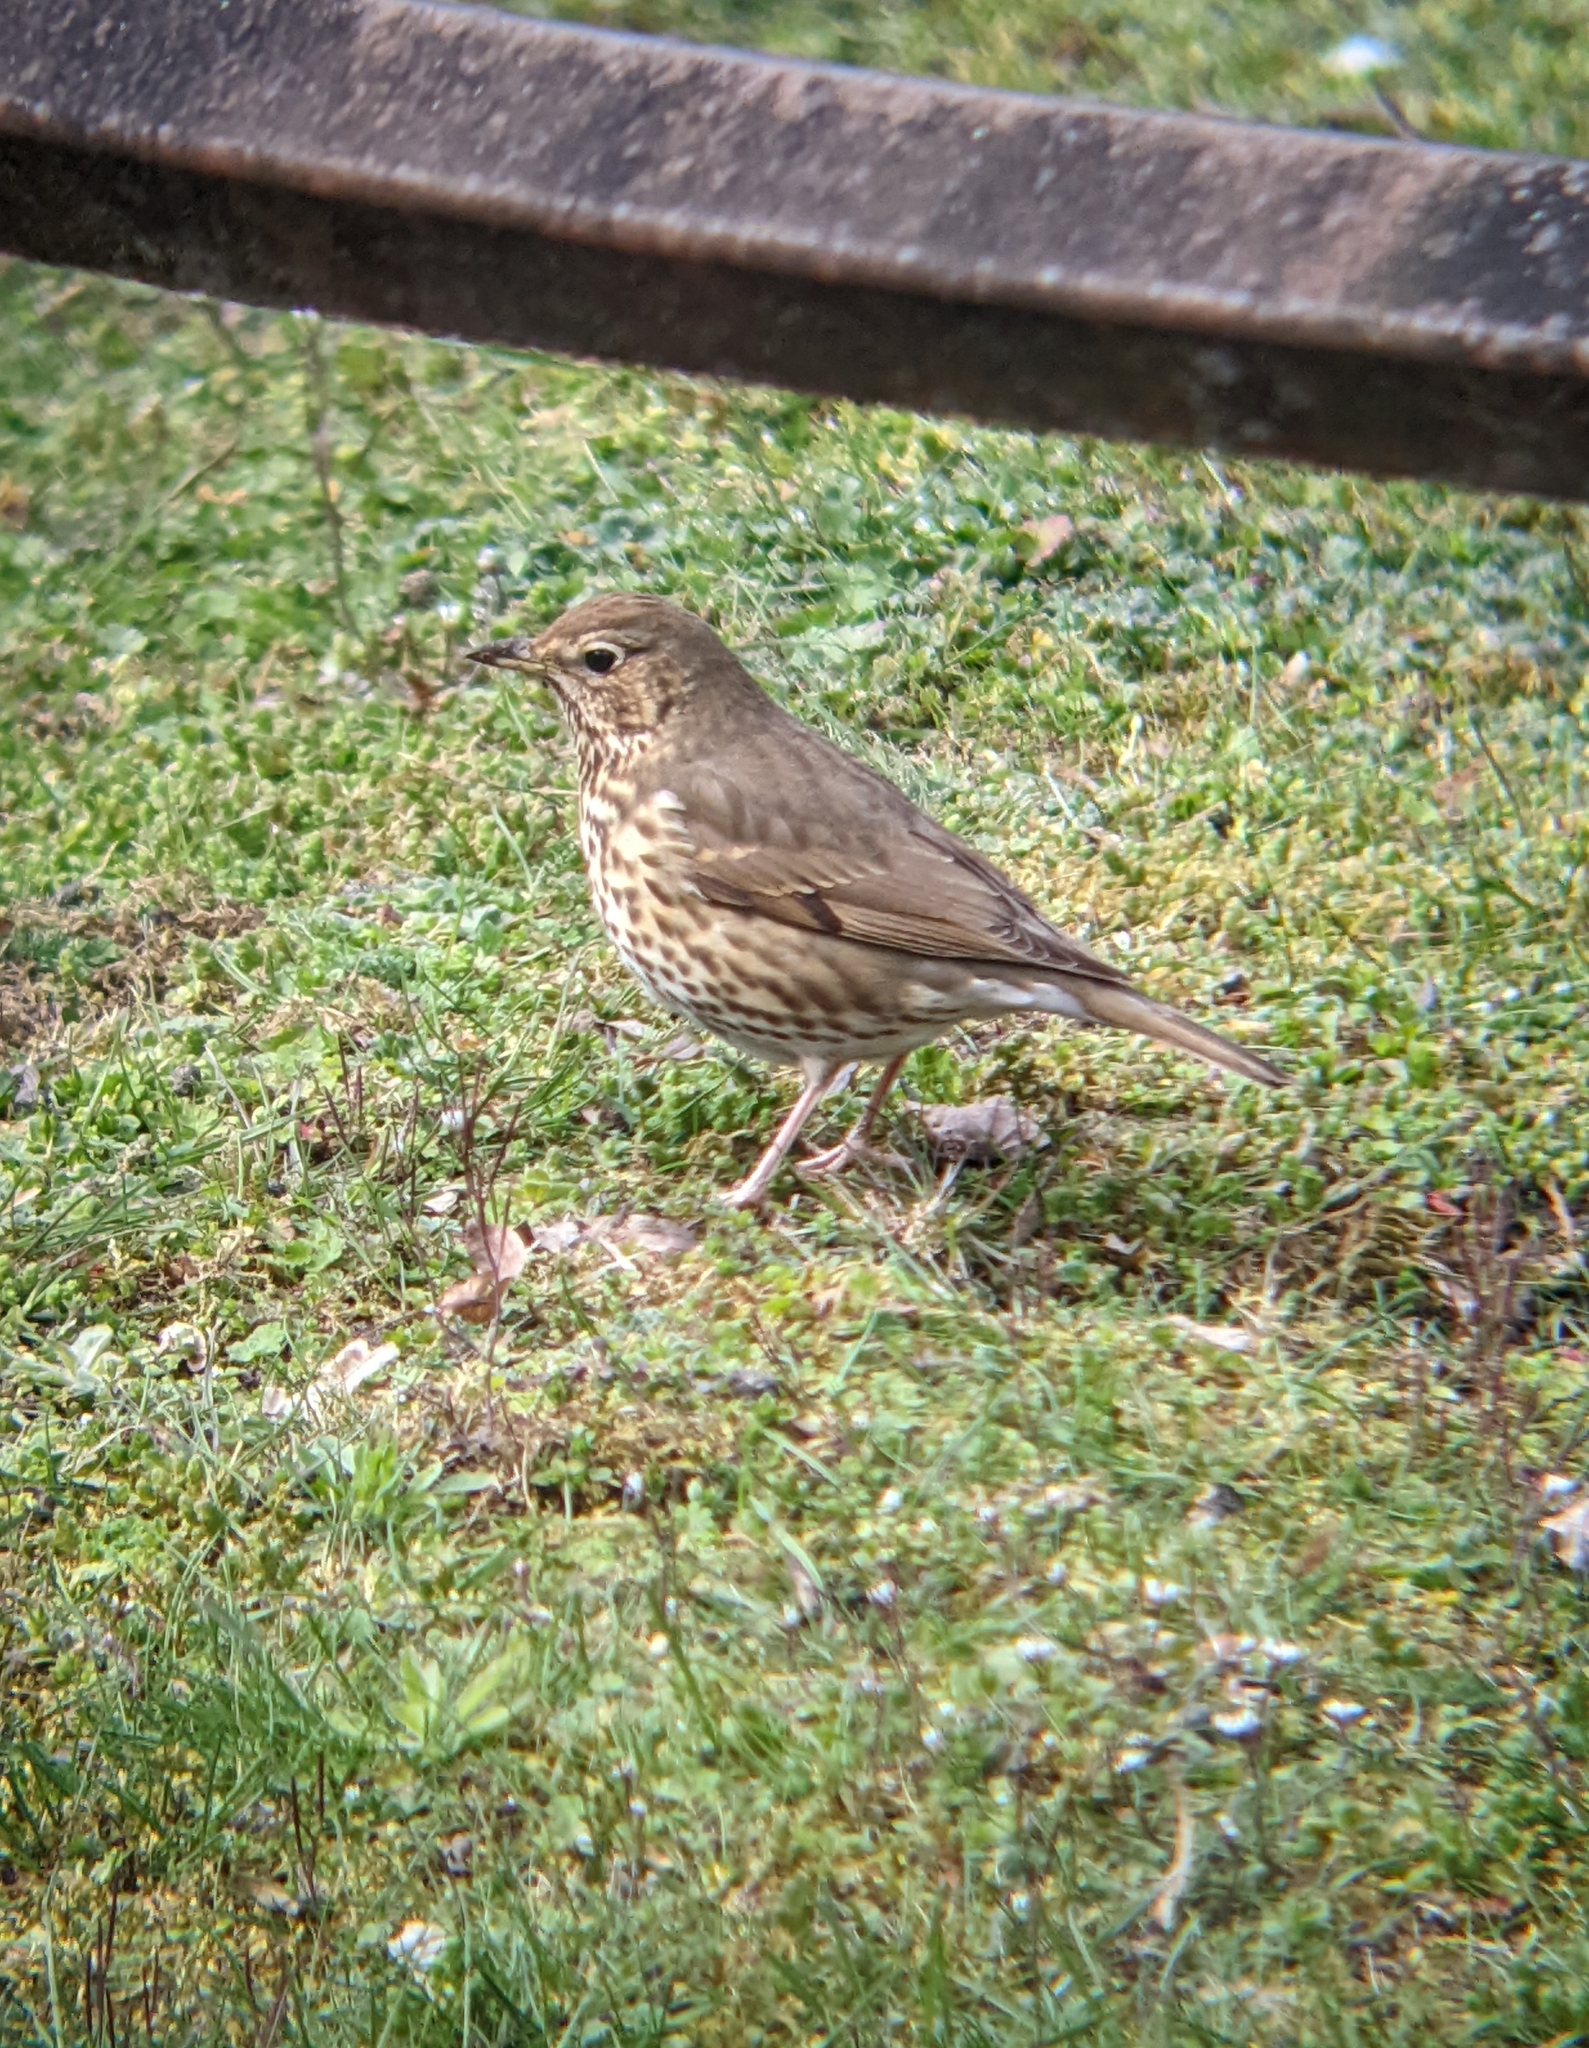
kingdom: Animalia
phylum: Chordata
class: Aves
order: Passeriformes
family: Turdidae
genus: Turdus
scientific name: Turdus philomelos
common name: Song thrush
